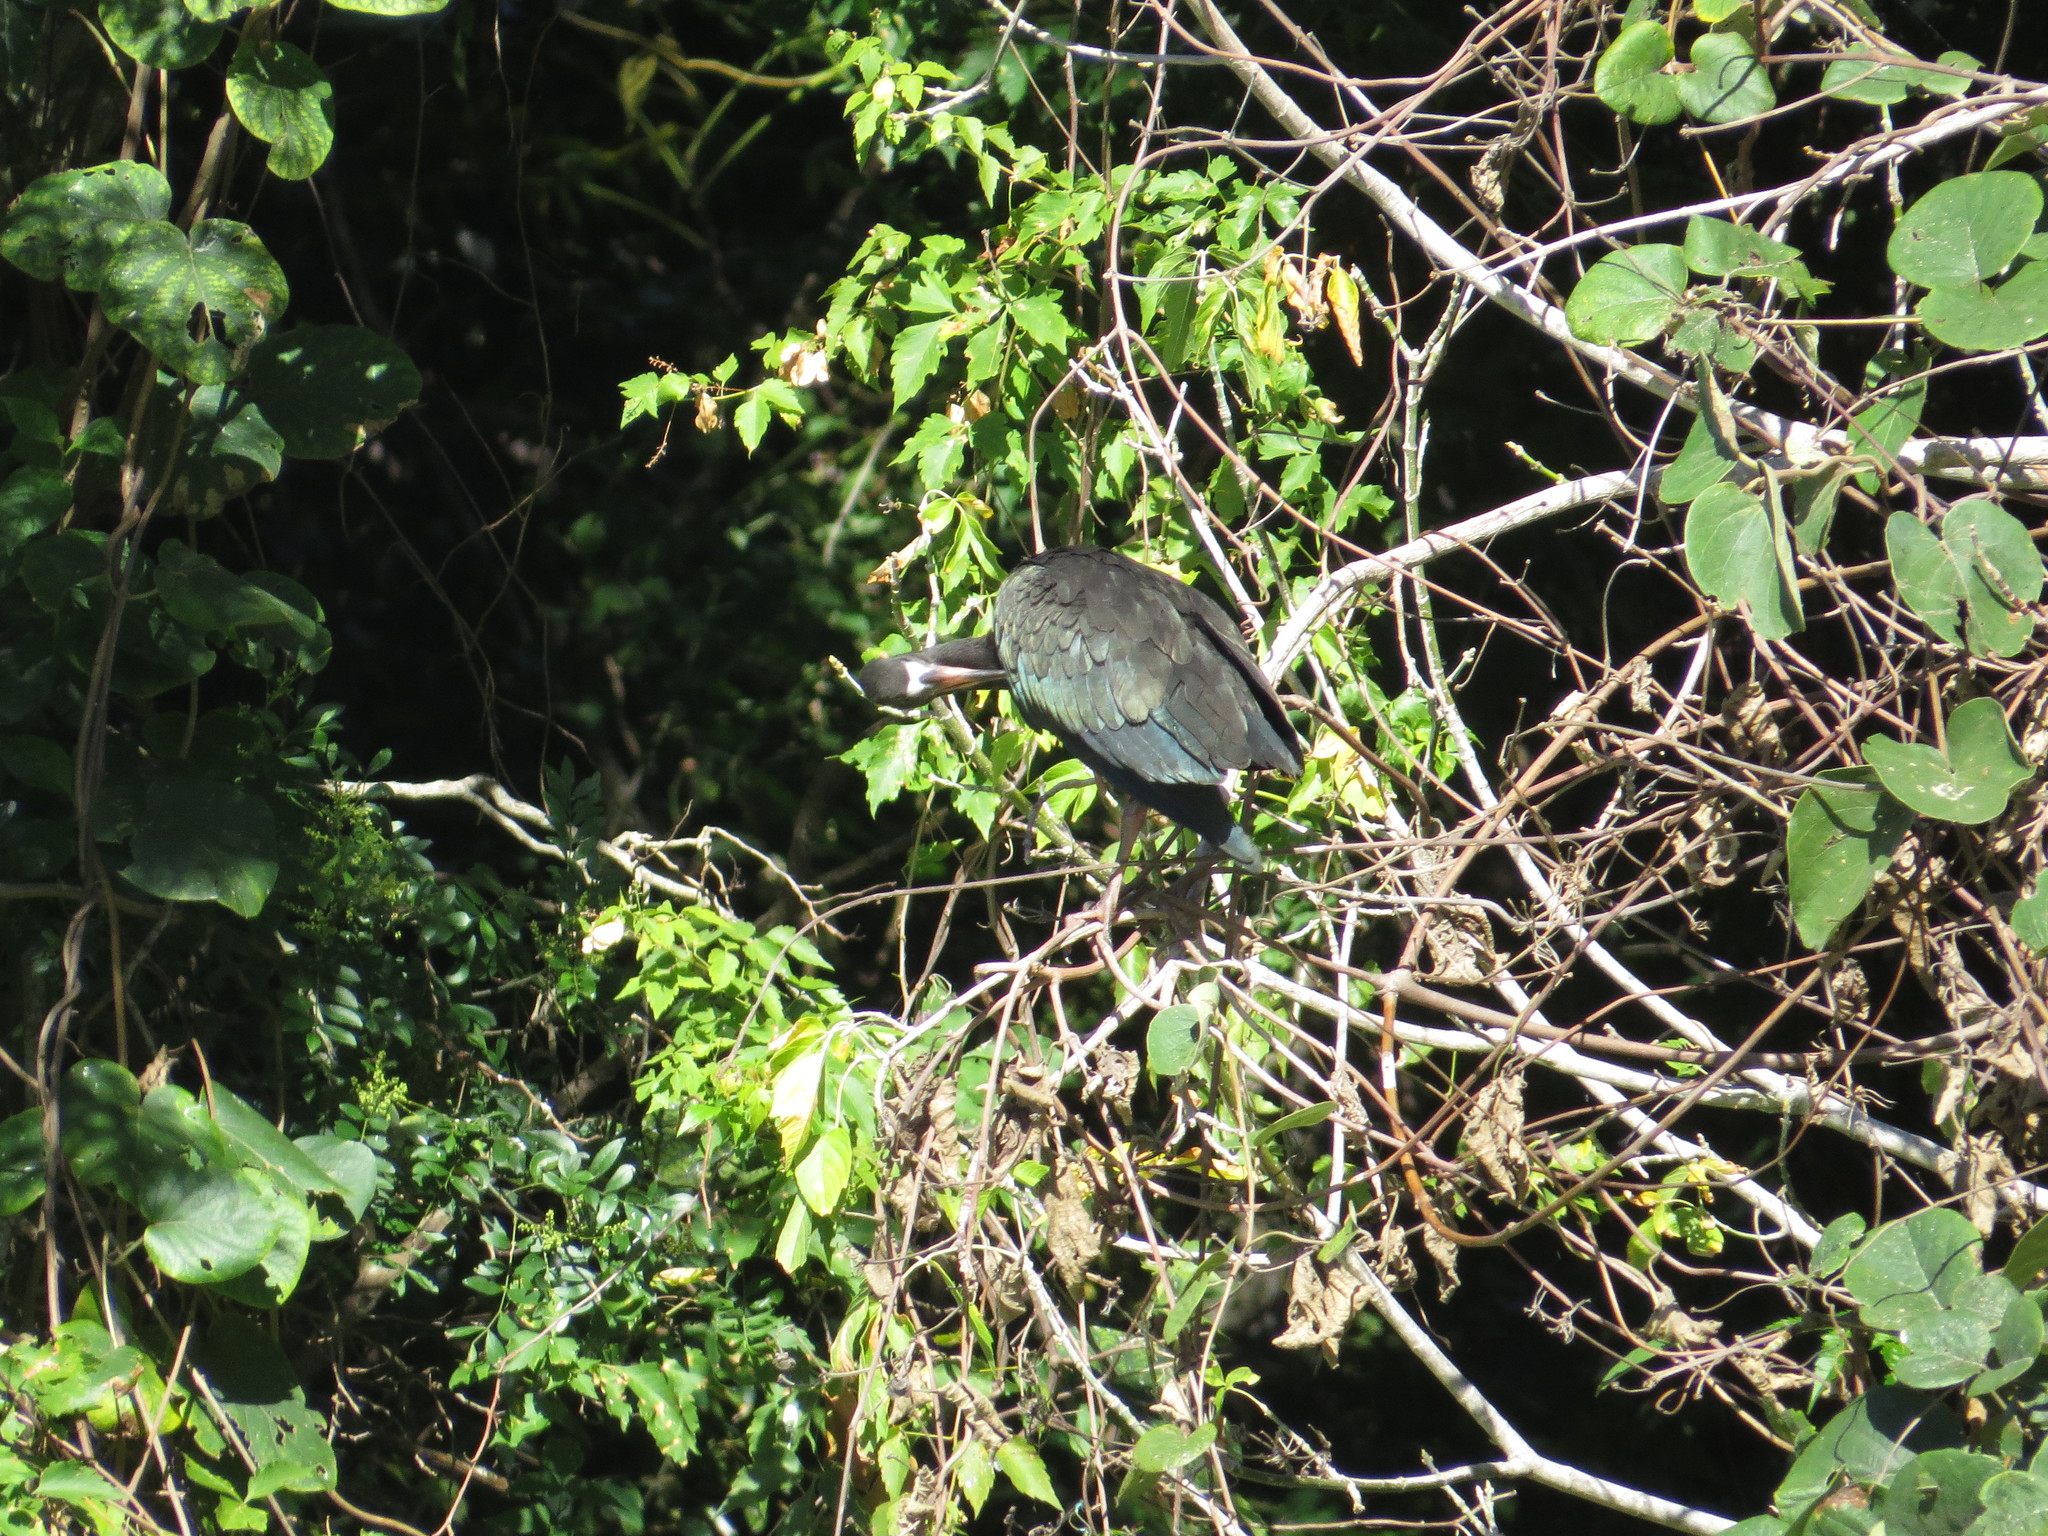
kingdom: Animalia
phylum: Chordata
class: Aves
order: Pelecaniformes
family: Threskiornithidae
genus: Plegadis
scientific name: Plegadis chihi
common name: White-faced ibis
